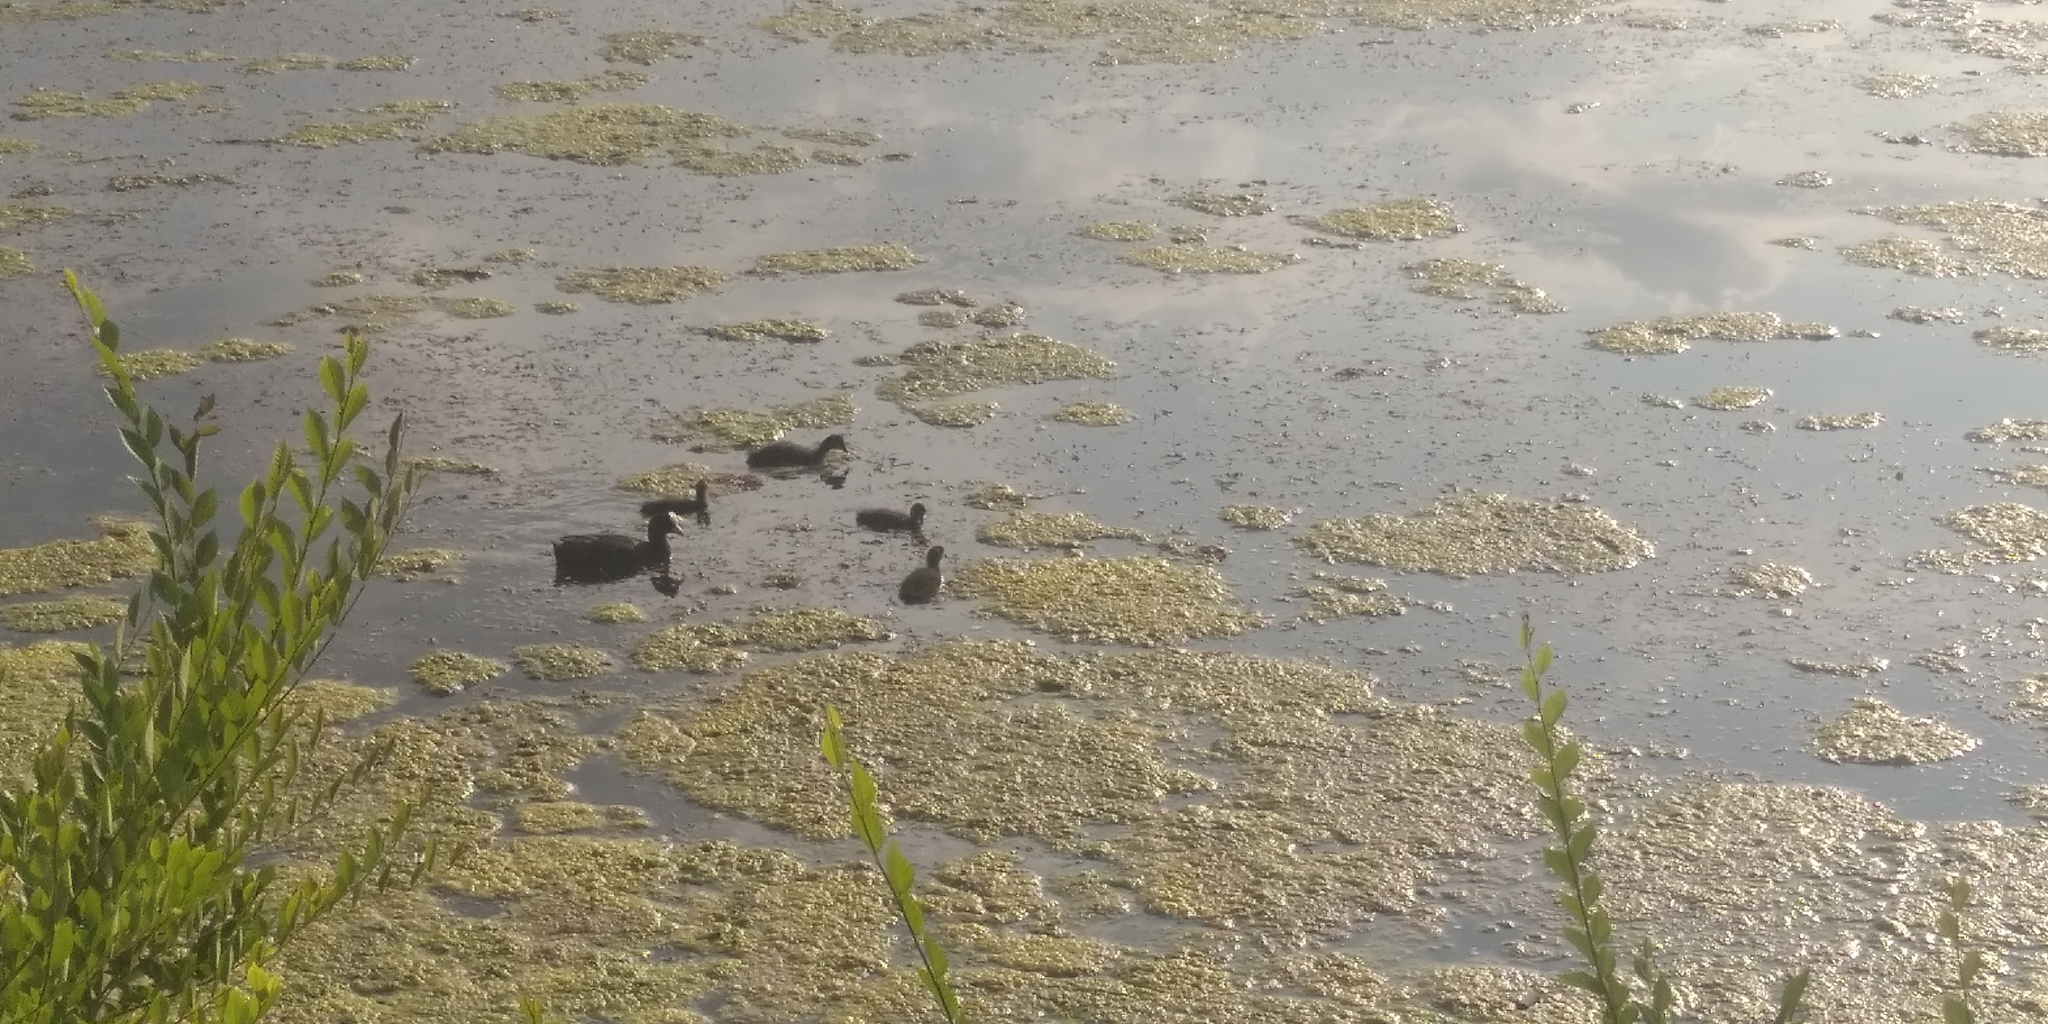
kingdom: Animalia
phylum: Chordata
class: Aves
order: Gruiformes
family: Rallidae
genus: Fulica
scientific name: Fulica atra
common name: Eurasian coot
